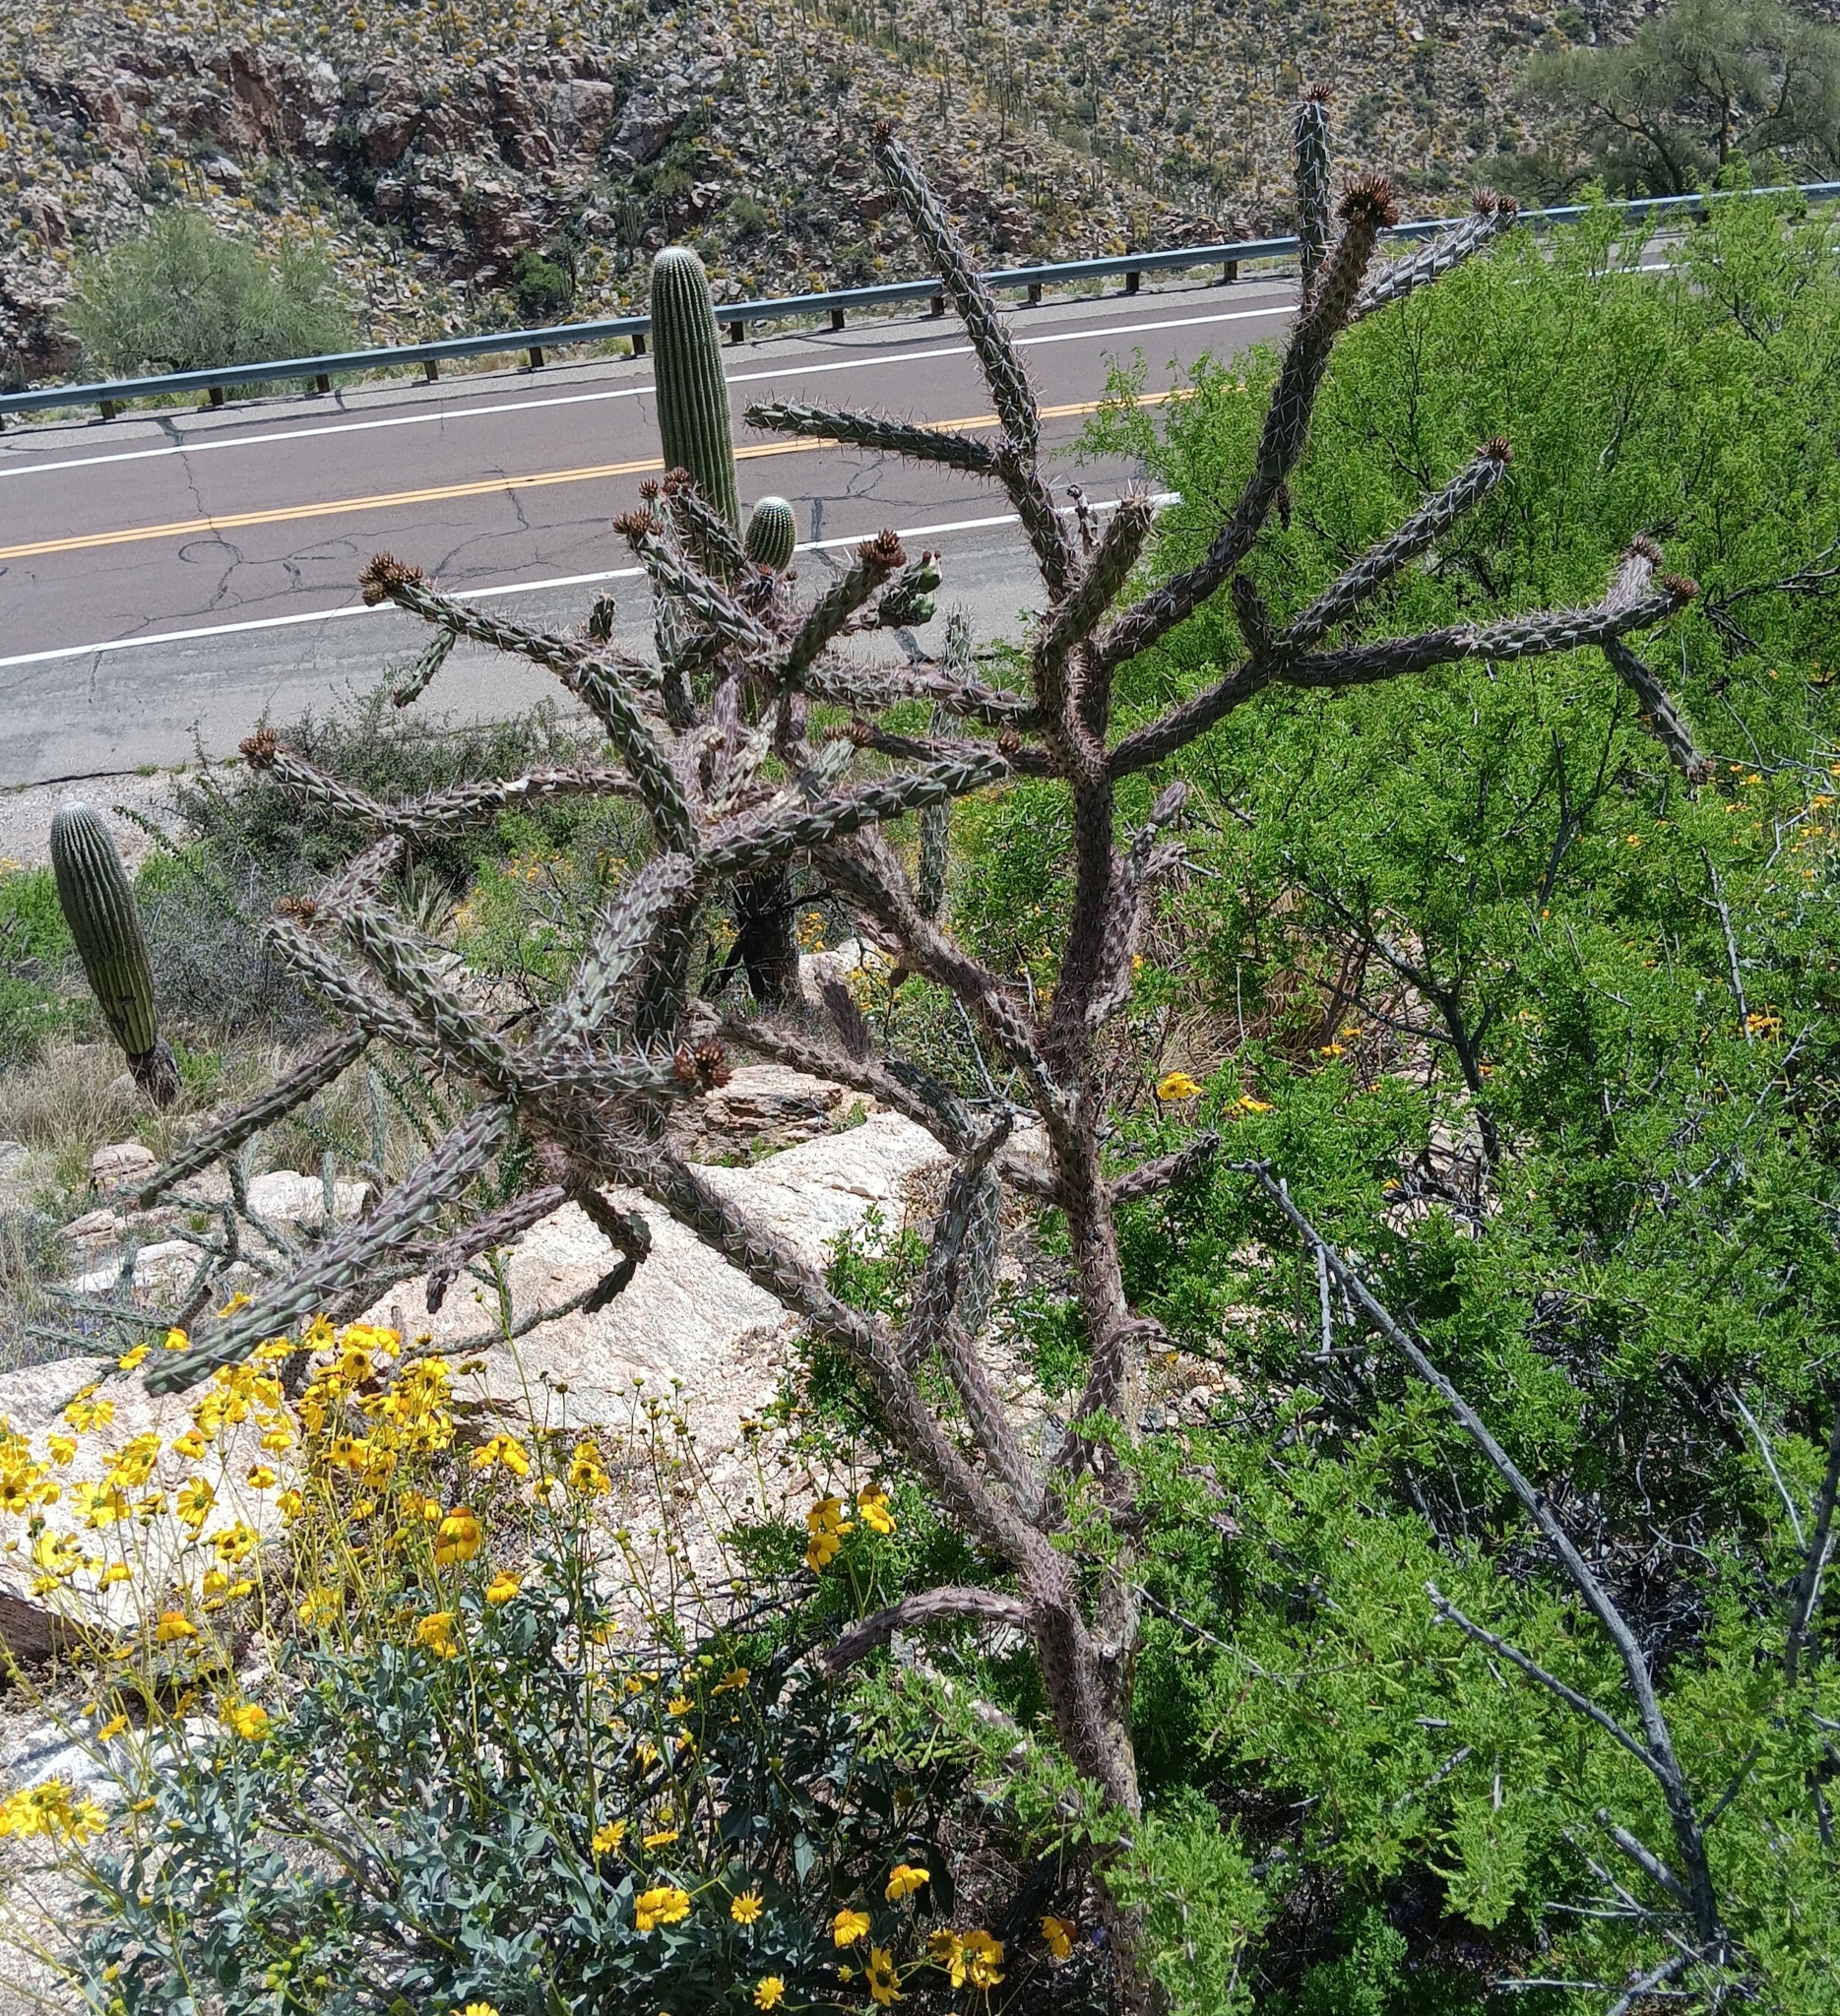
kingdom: Plantae
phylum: Tracheophyta
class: Magnoliopsida
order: Caryophyllales
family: Cactaceae
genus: Cylindropuntia
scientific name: Cylindropuntia imbricata
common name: Candelabrum cactus
